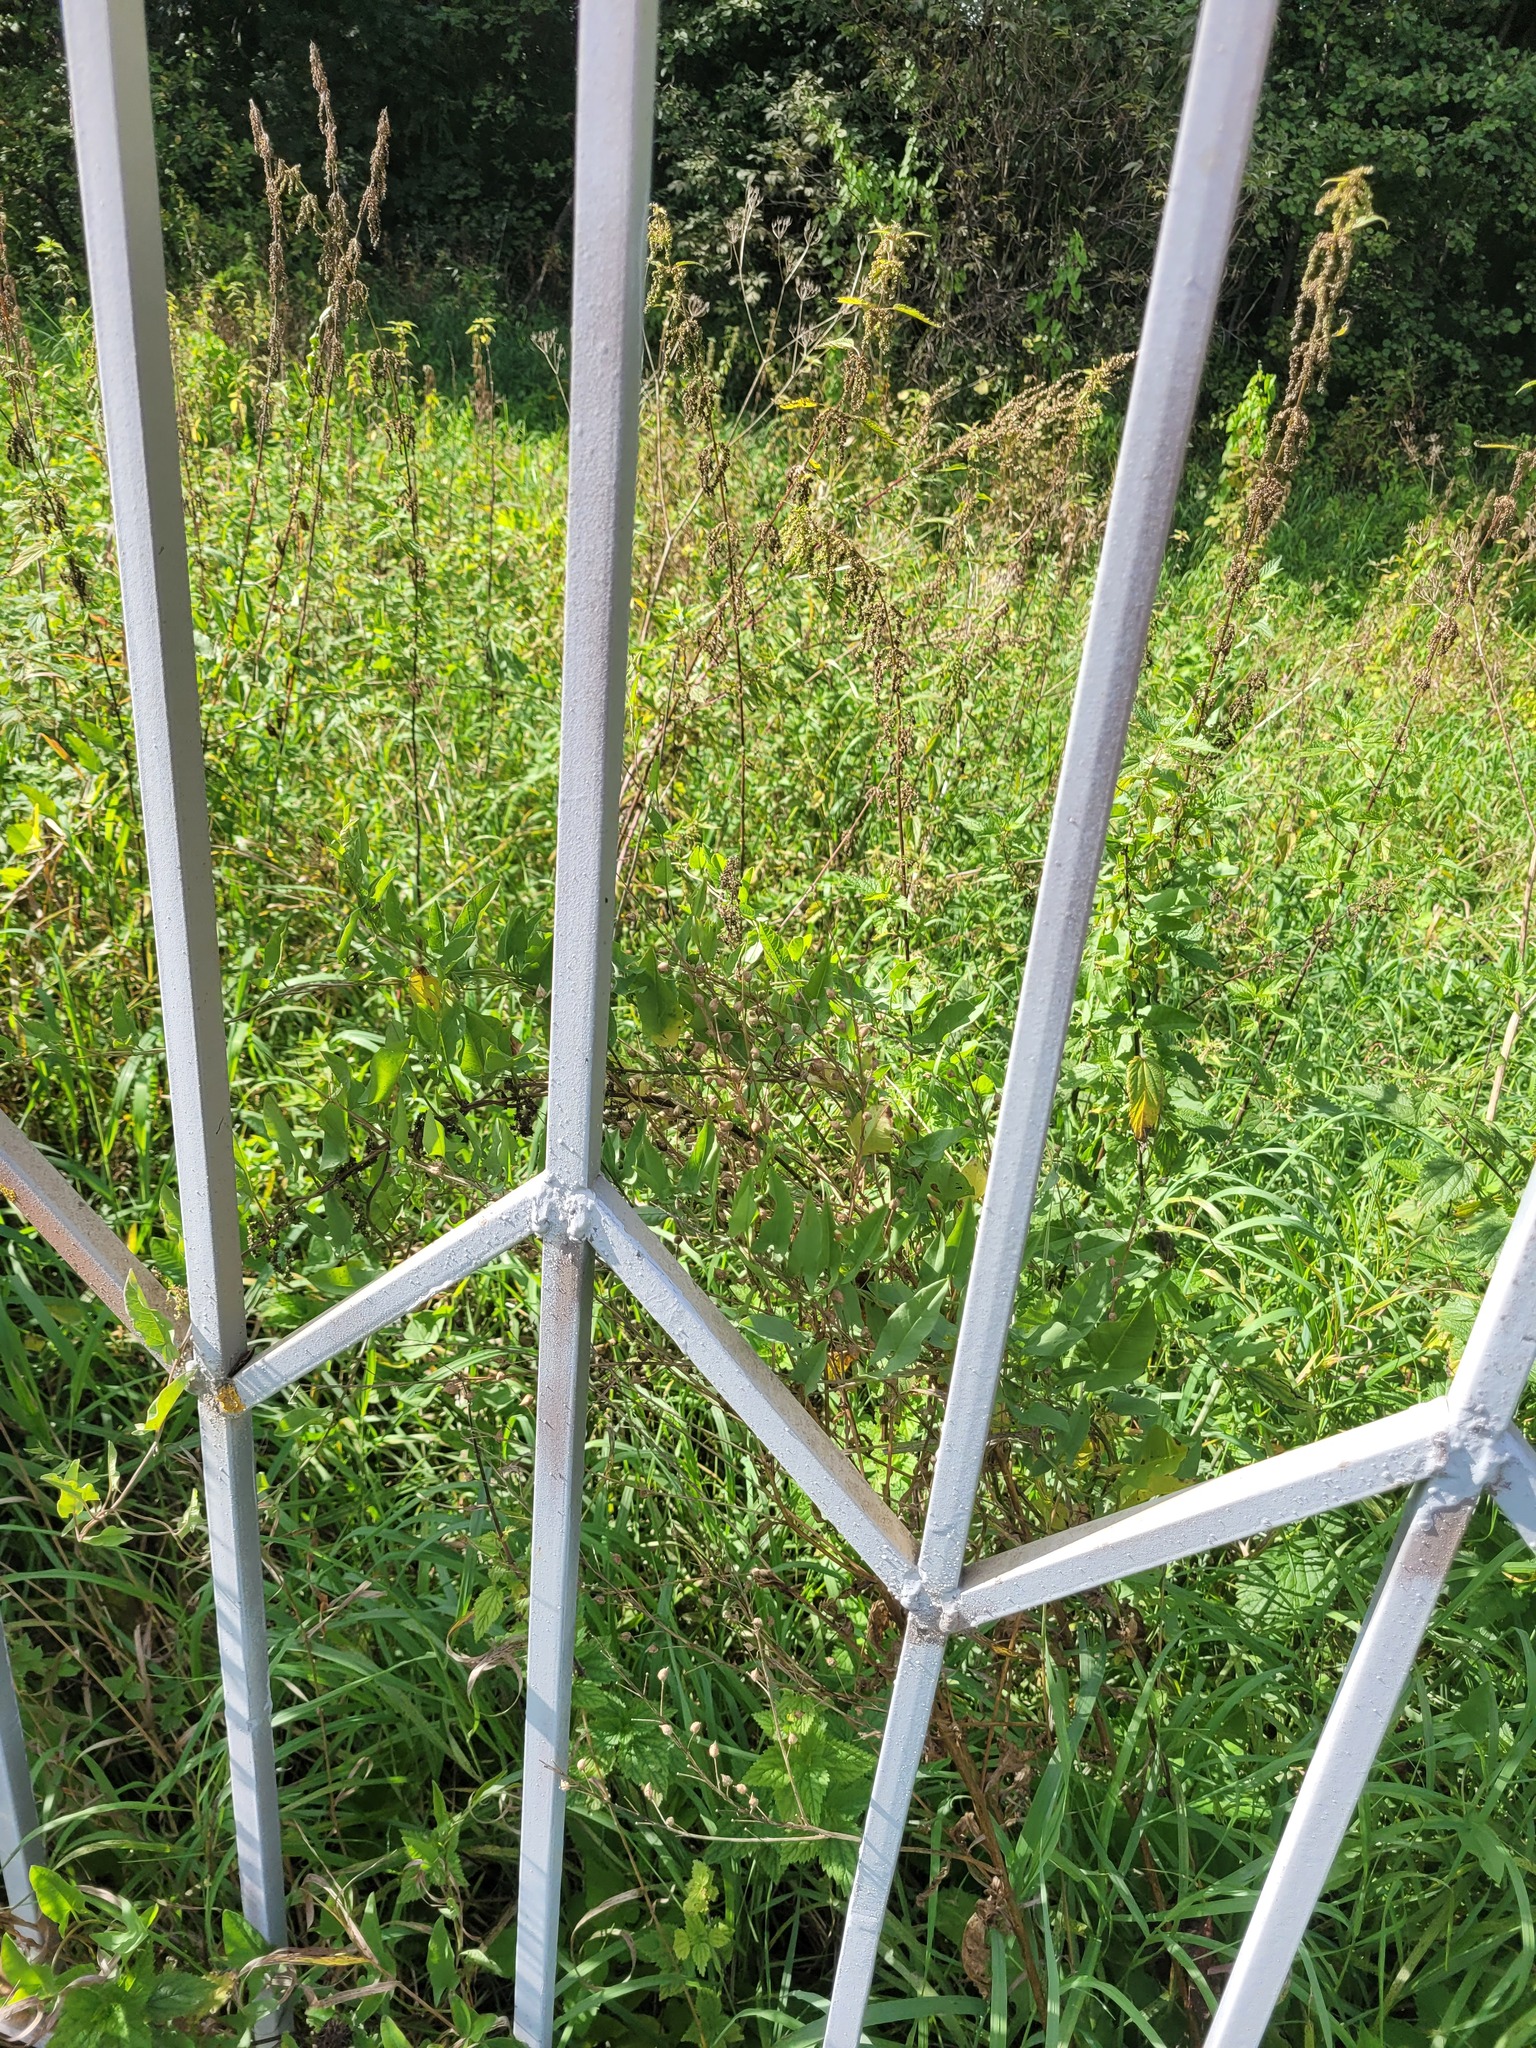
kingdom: Plantae
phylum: Tracheophyta
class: Magnoliopsida
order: Solanales
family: Convolvulaceae
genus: Convolvulus
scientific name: Convolvulus arvensis
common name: Field bindweed
